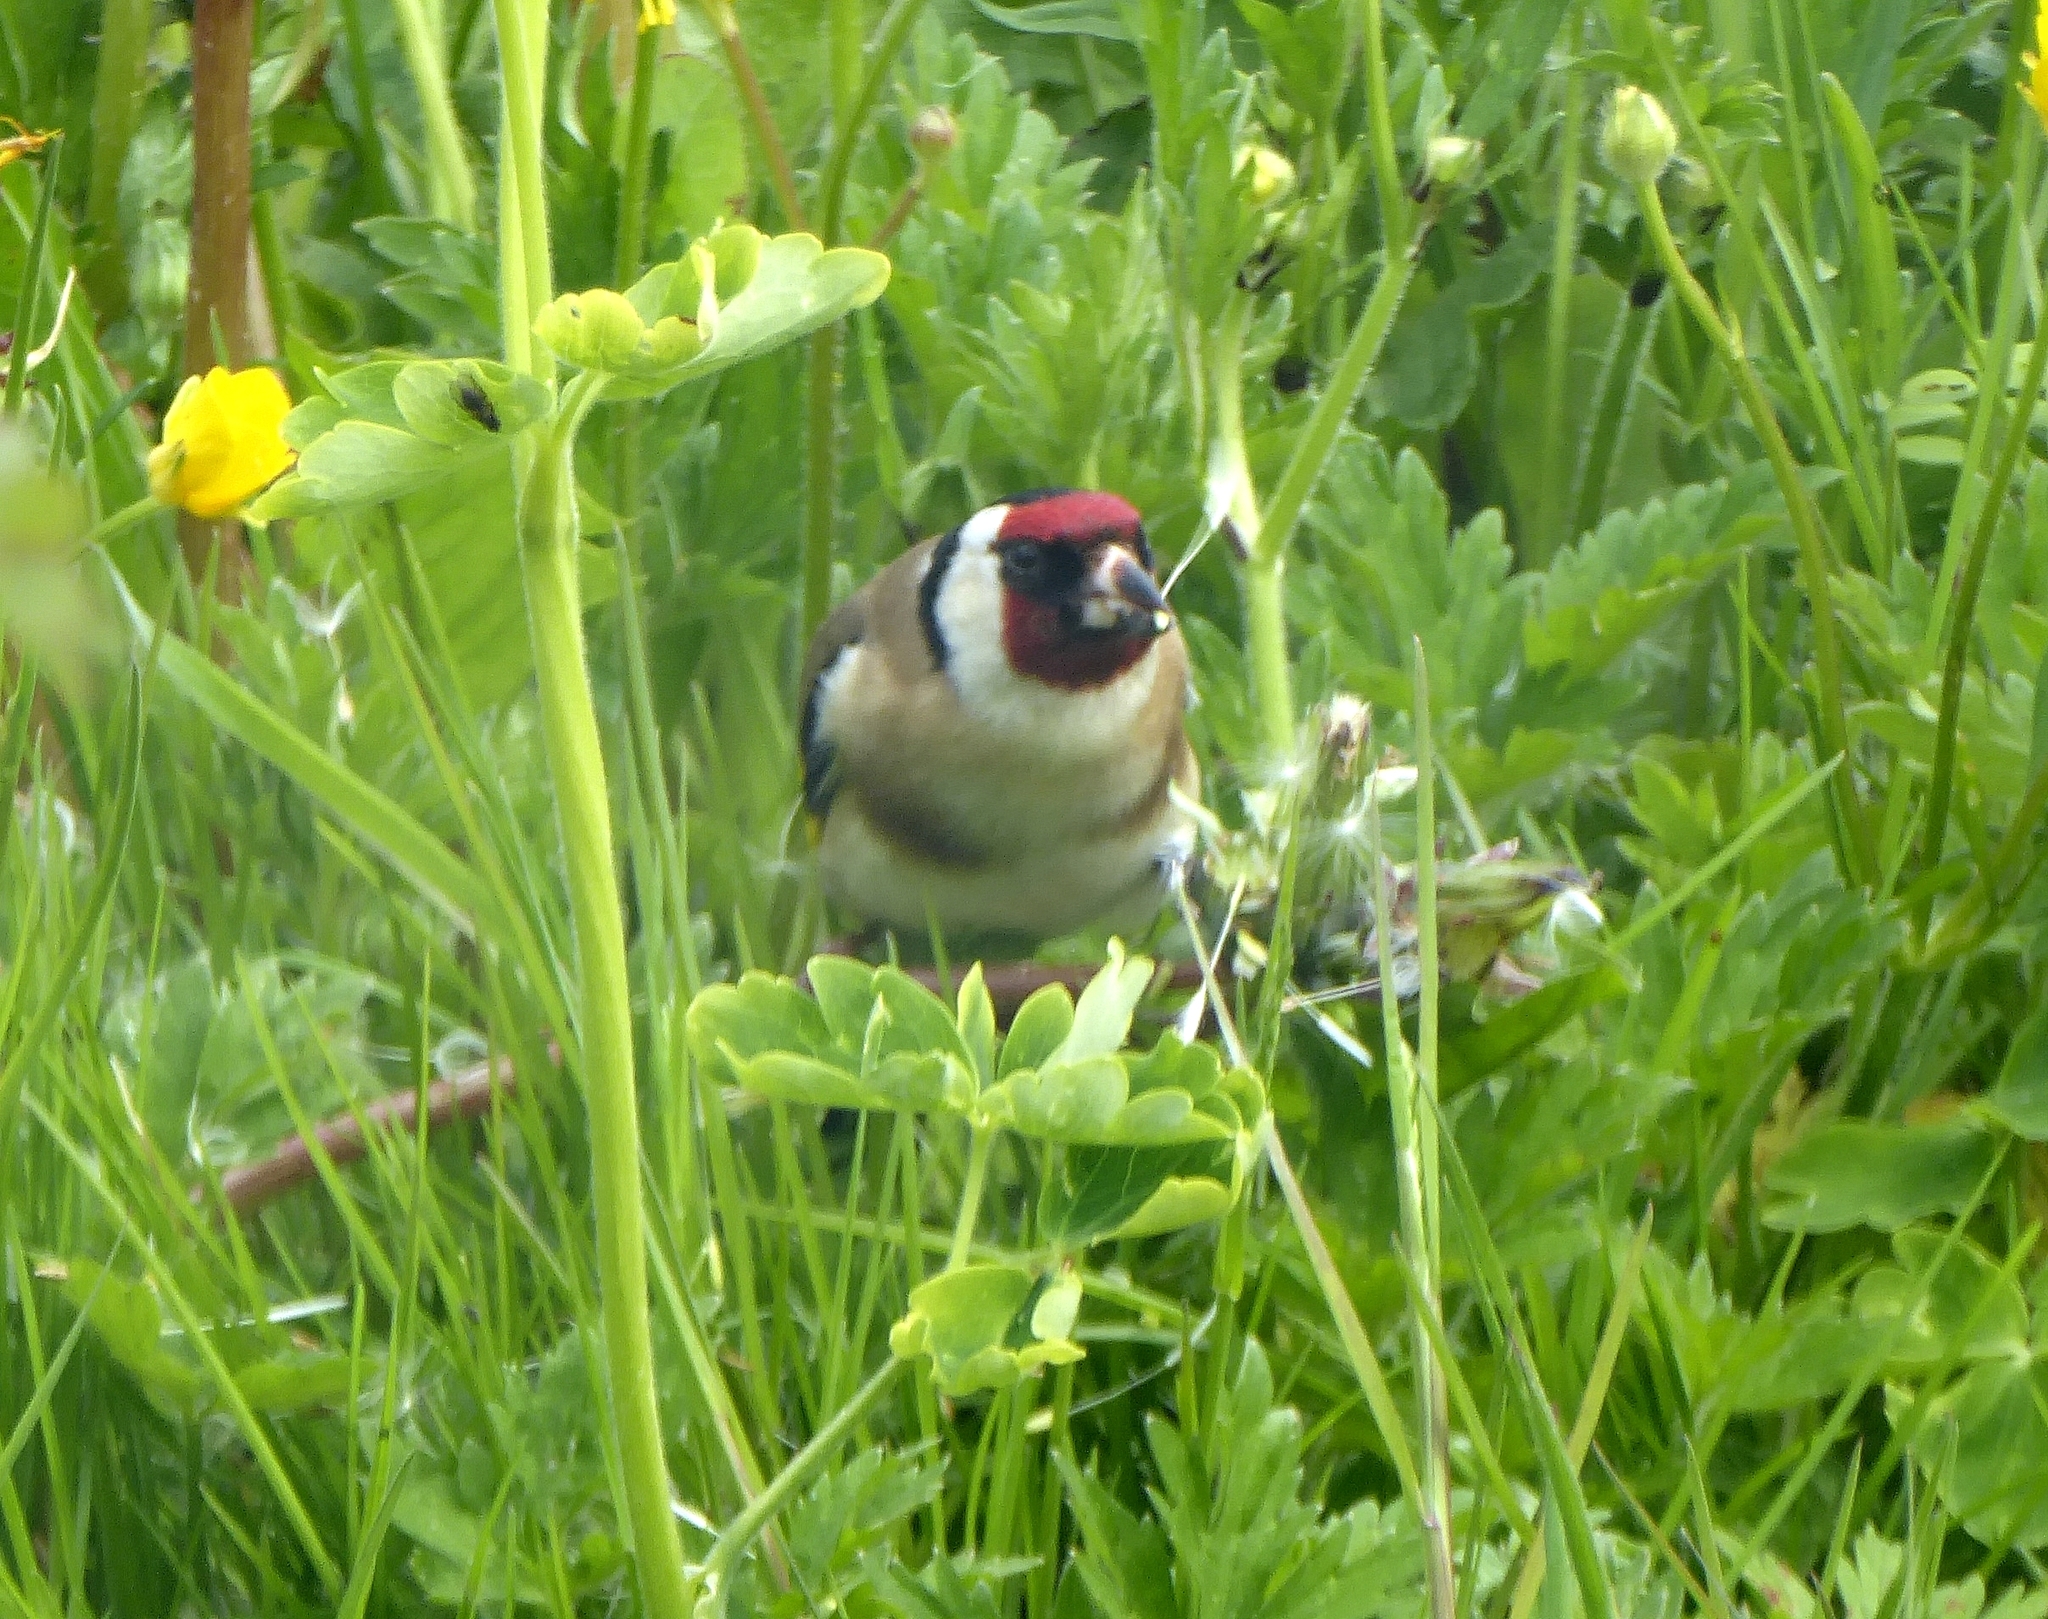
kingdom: Animalia
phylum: Chordata
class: Aves
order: Passeriformes
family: Fringillidae
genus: Carduelis
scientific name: Carduelis carduelis
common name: European goldfinch
